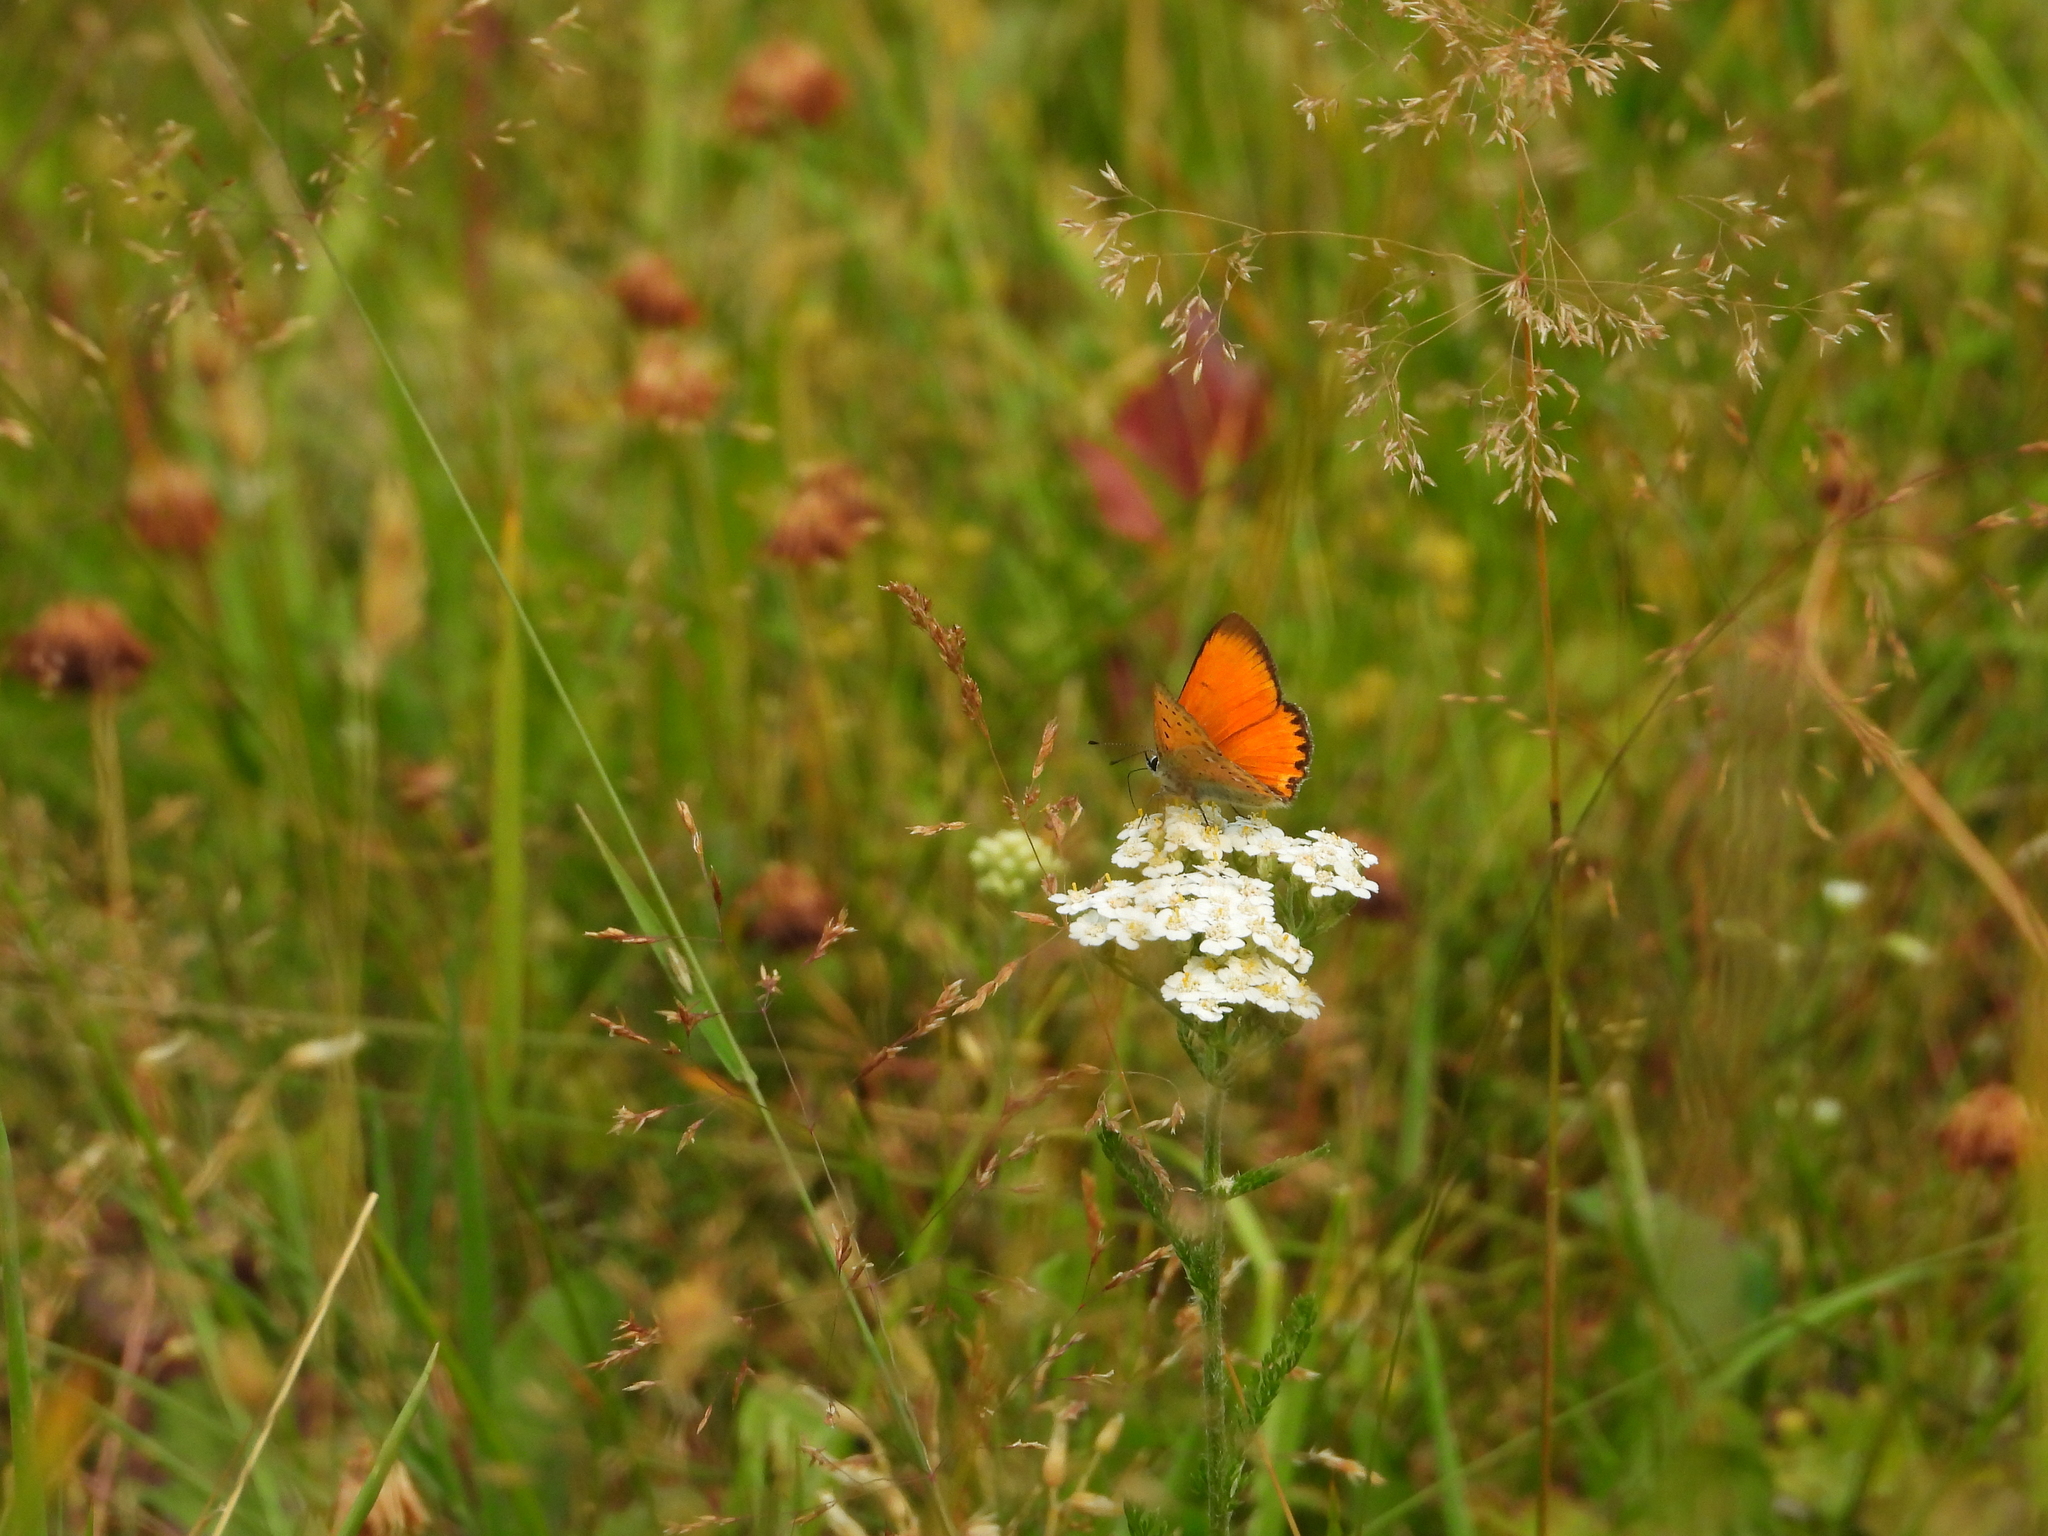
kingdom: Animalia
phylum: Arthropoda
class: Insecta
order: Lepidoptera
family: Lycaenidae
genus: Lycaena
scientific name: Lycaena virgaureae
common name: Scarce copper
